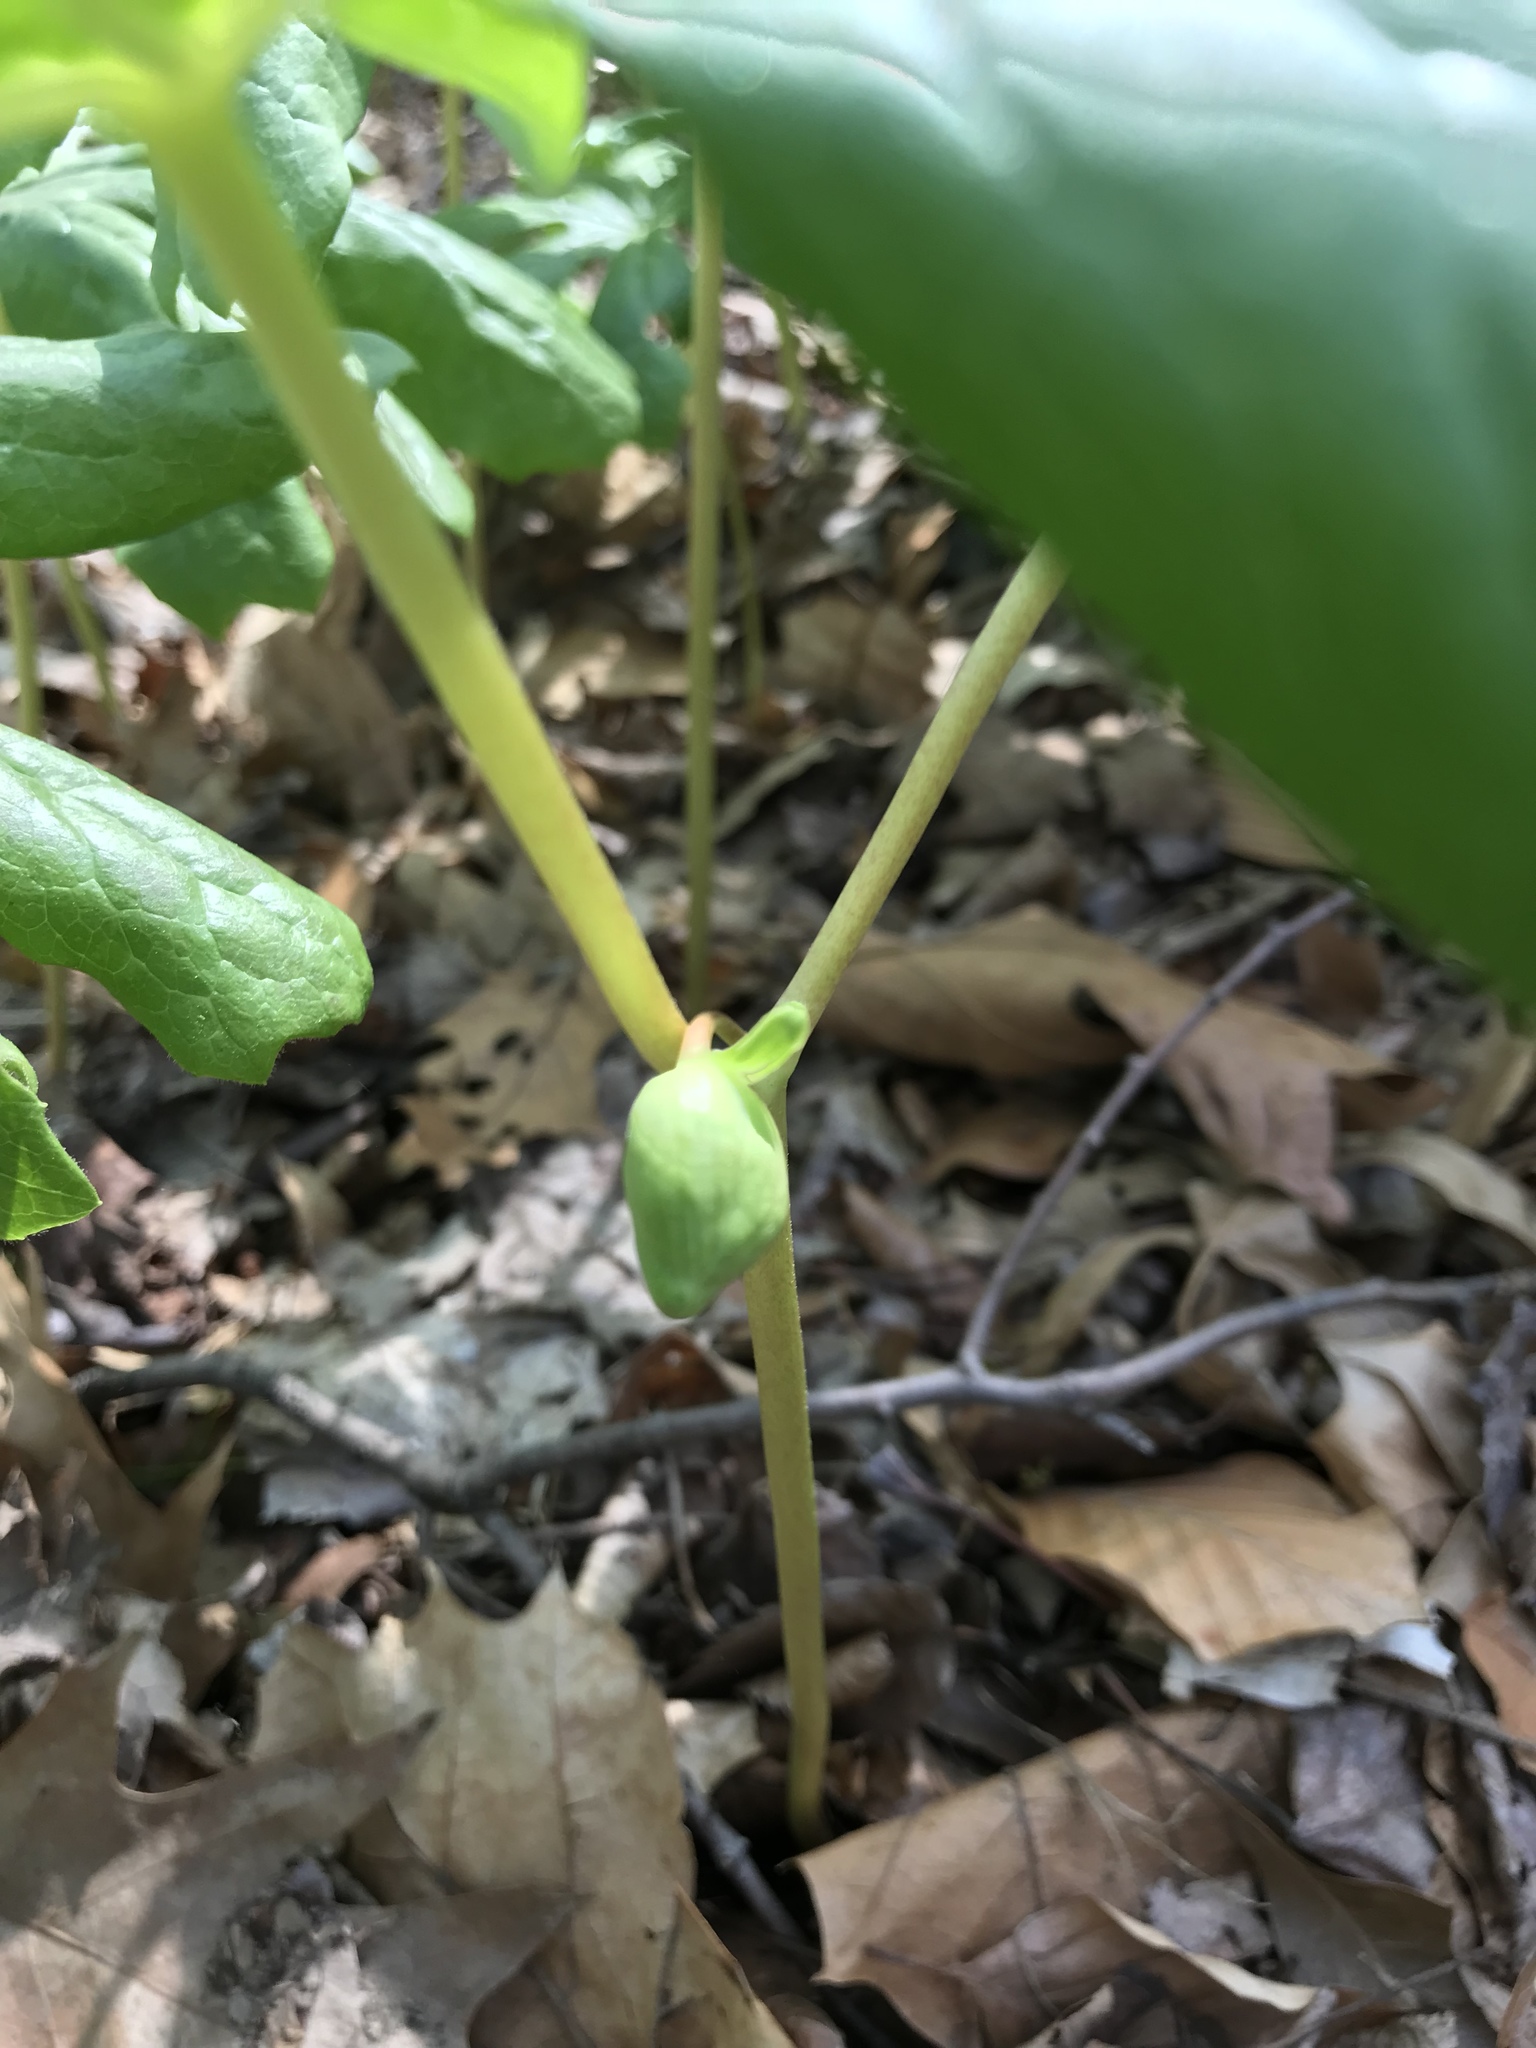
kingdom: Plantae
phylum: Tracheophyta
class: Magnoliopsida
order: Ranunculales
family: Berberidaceae
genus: Podophyllum
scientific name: Podophyllum peltatum
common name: Wild mandrake
